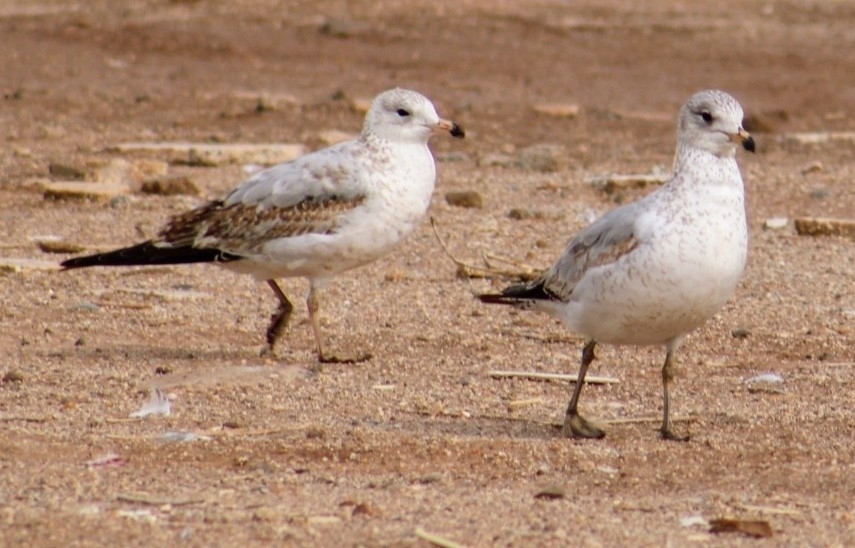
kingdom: Animalia
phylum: Chordata
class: Aves
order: Charadriiformes
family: Laridae
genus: Larus
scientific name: Larus delawarensis
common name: Ring-billed gull
